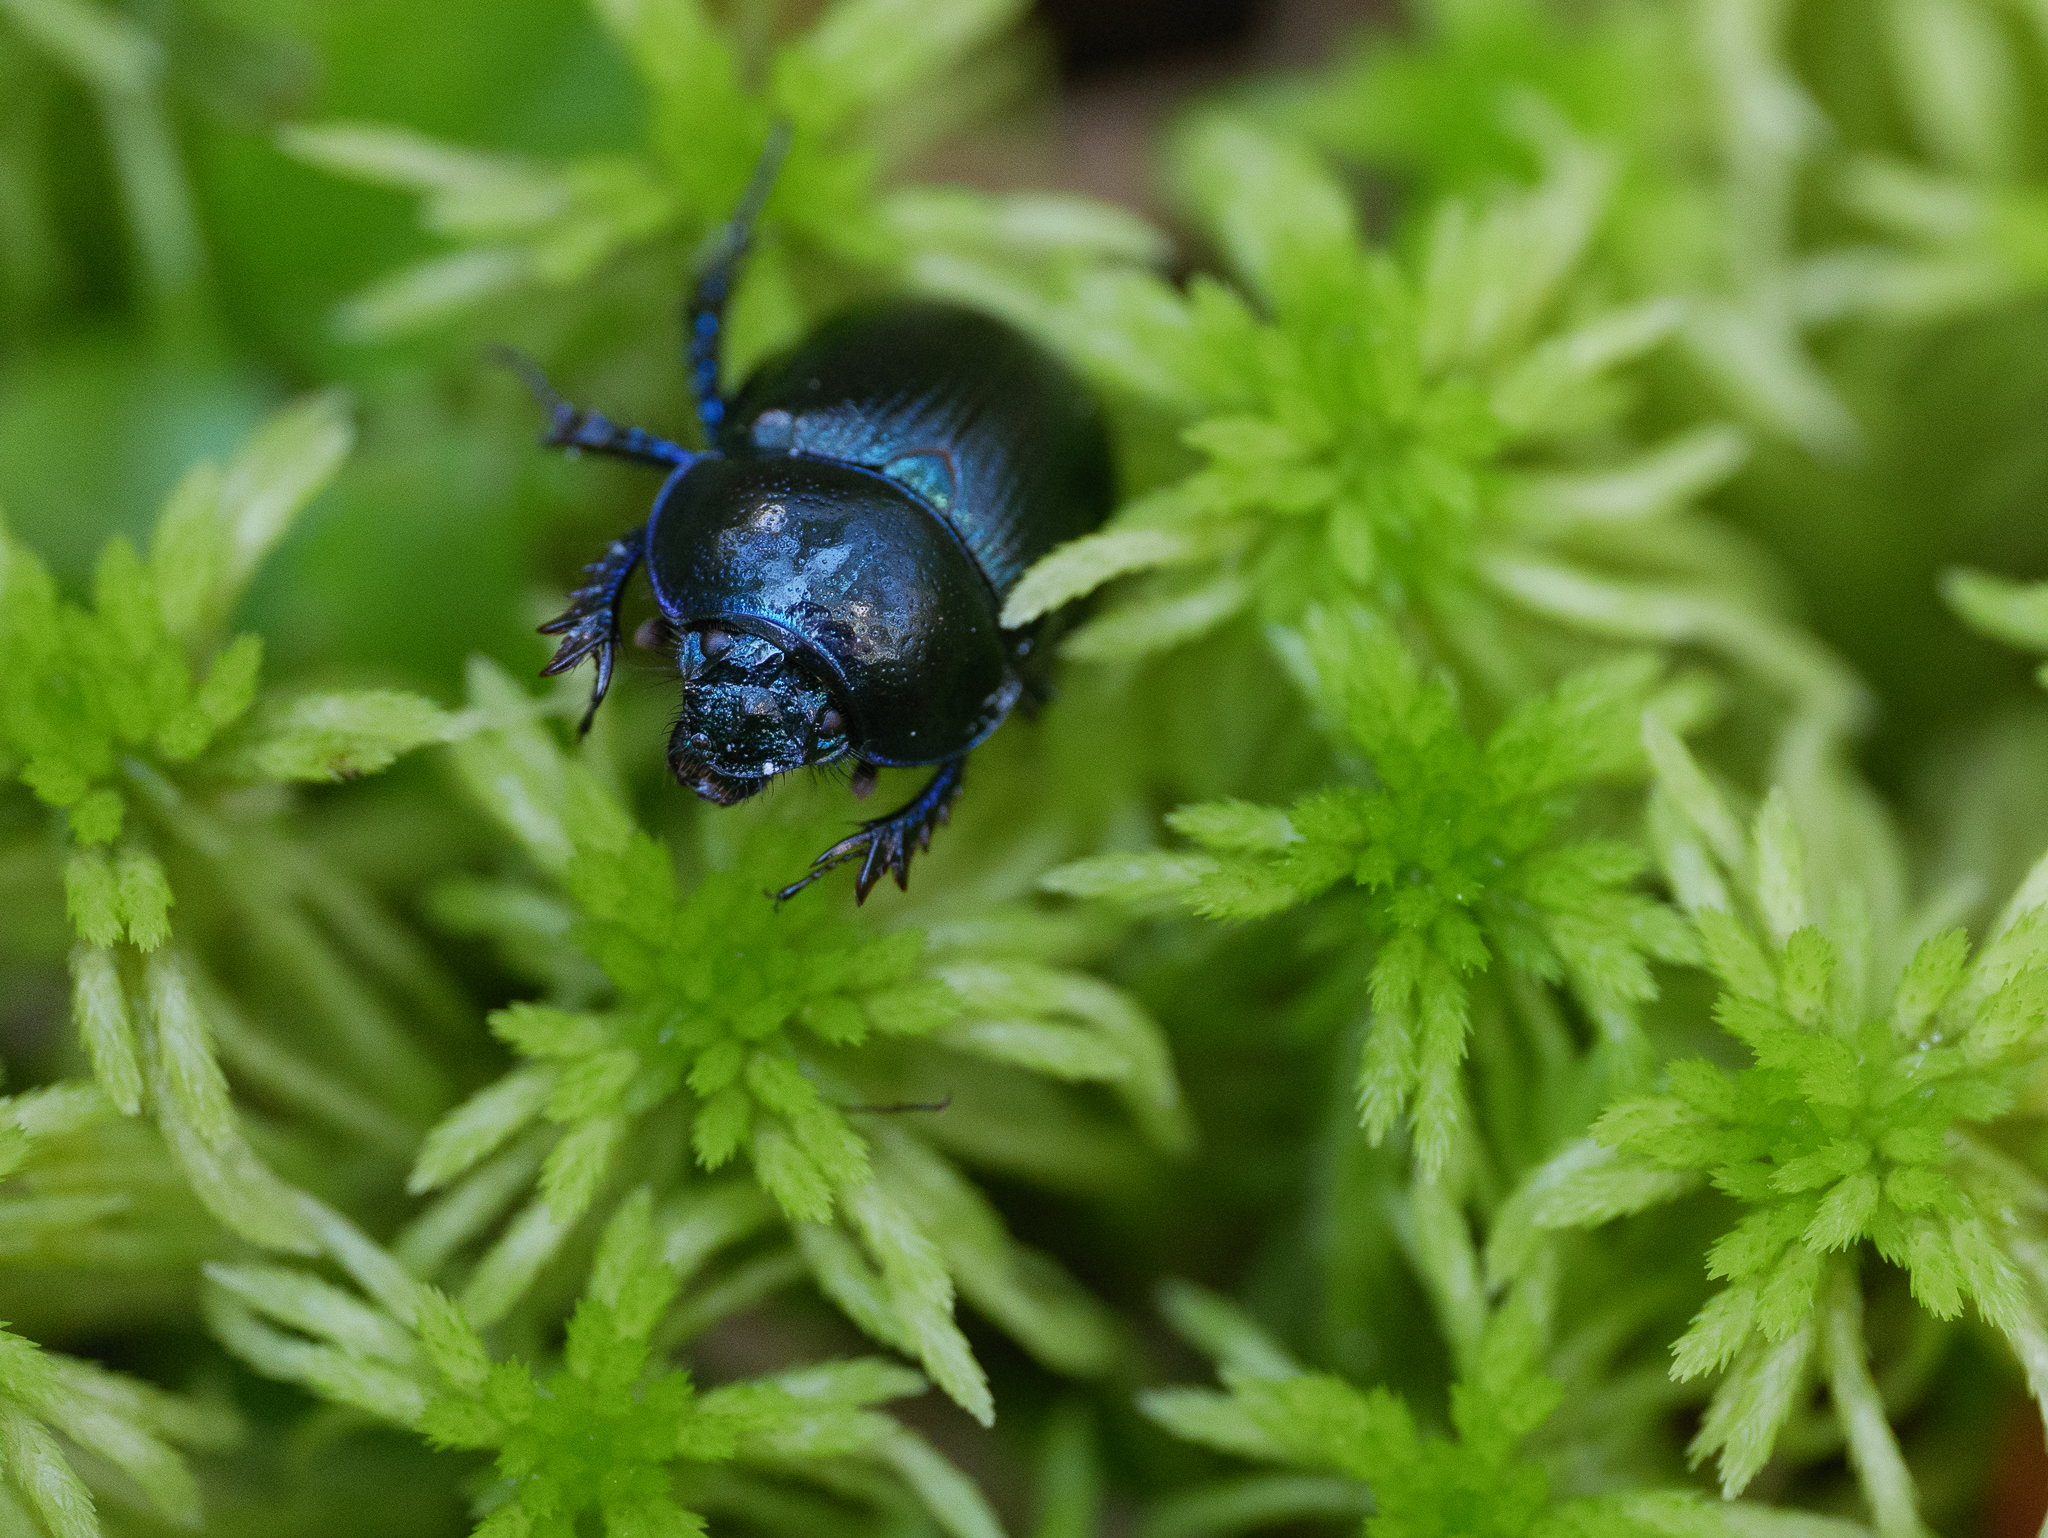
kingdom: Animalia
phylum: Arthropoda
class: Insecta
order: Coleoptera
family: Geotrupidae
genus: Anoplotrupes
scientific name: Anoplotrupes stercorosus
